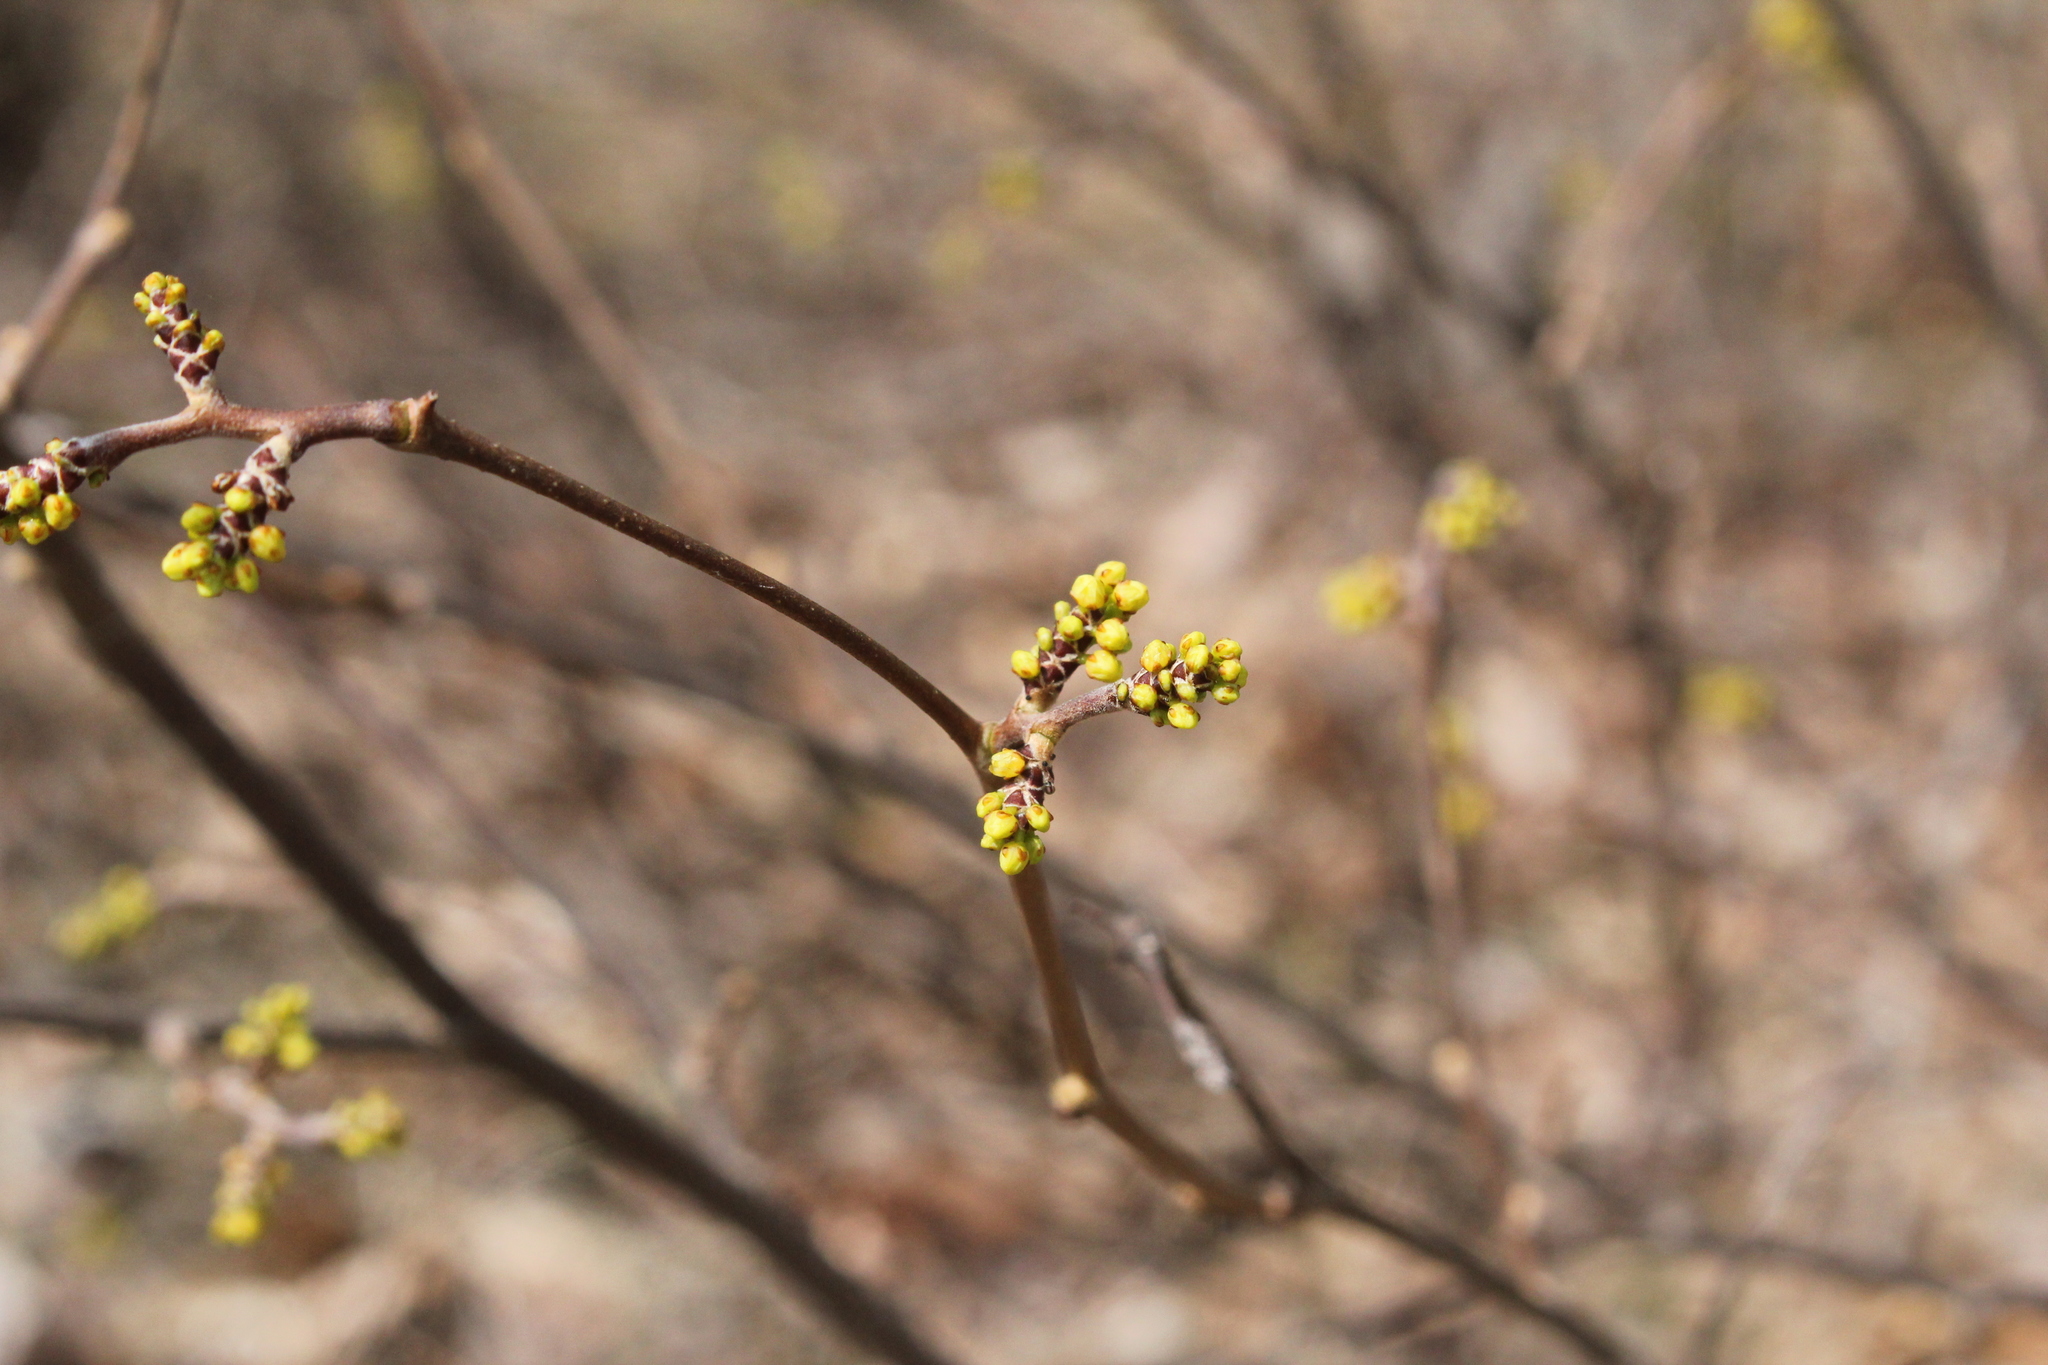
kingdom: Plantae
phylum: Tracheophyta
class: Magnoliopsida
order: Sapindales
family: Anacardiaceae
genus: Rhus
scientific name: Rhus aromatica
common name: Aromatic sumac
